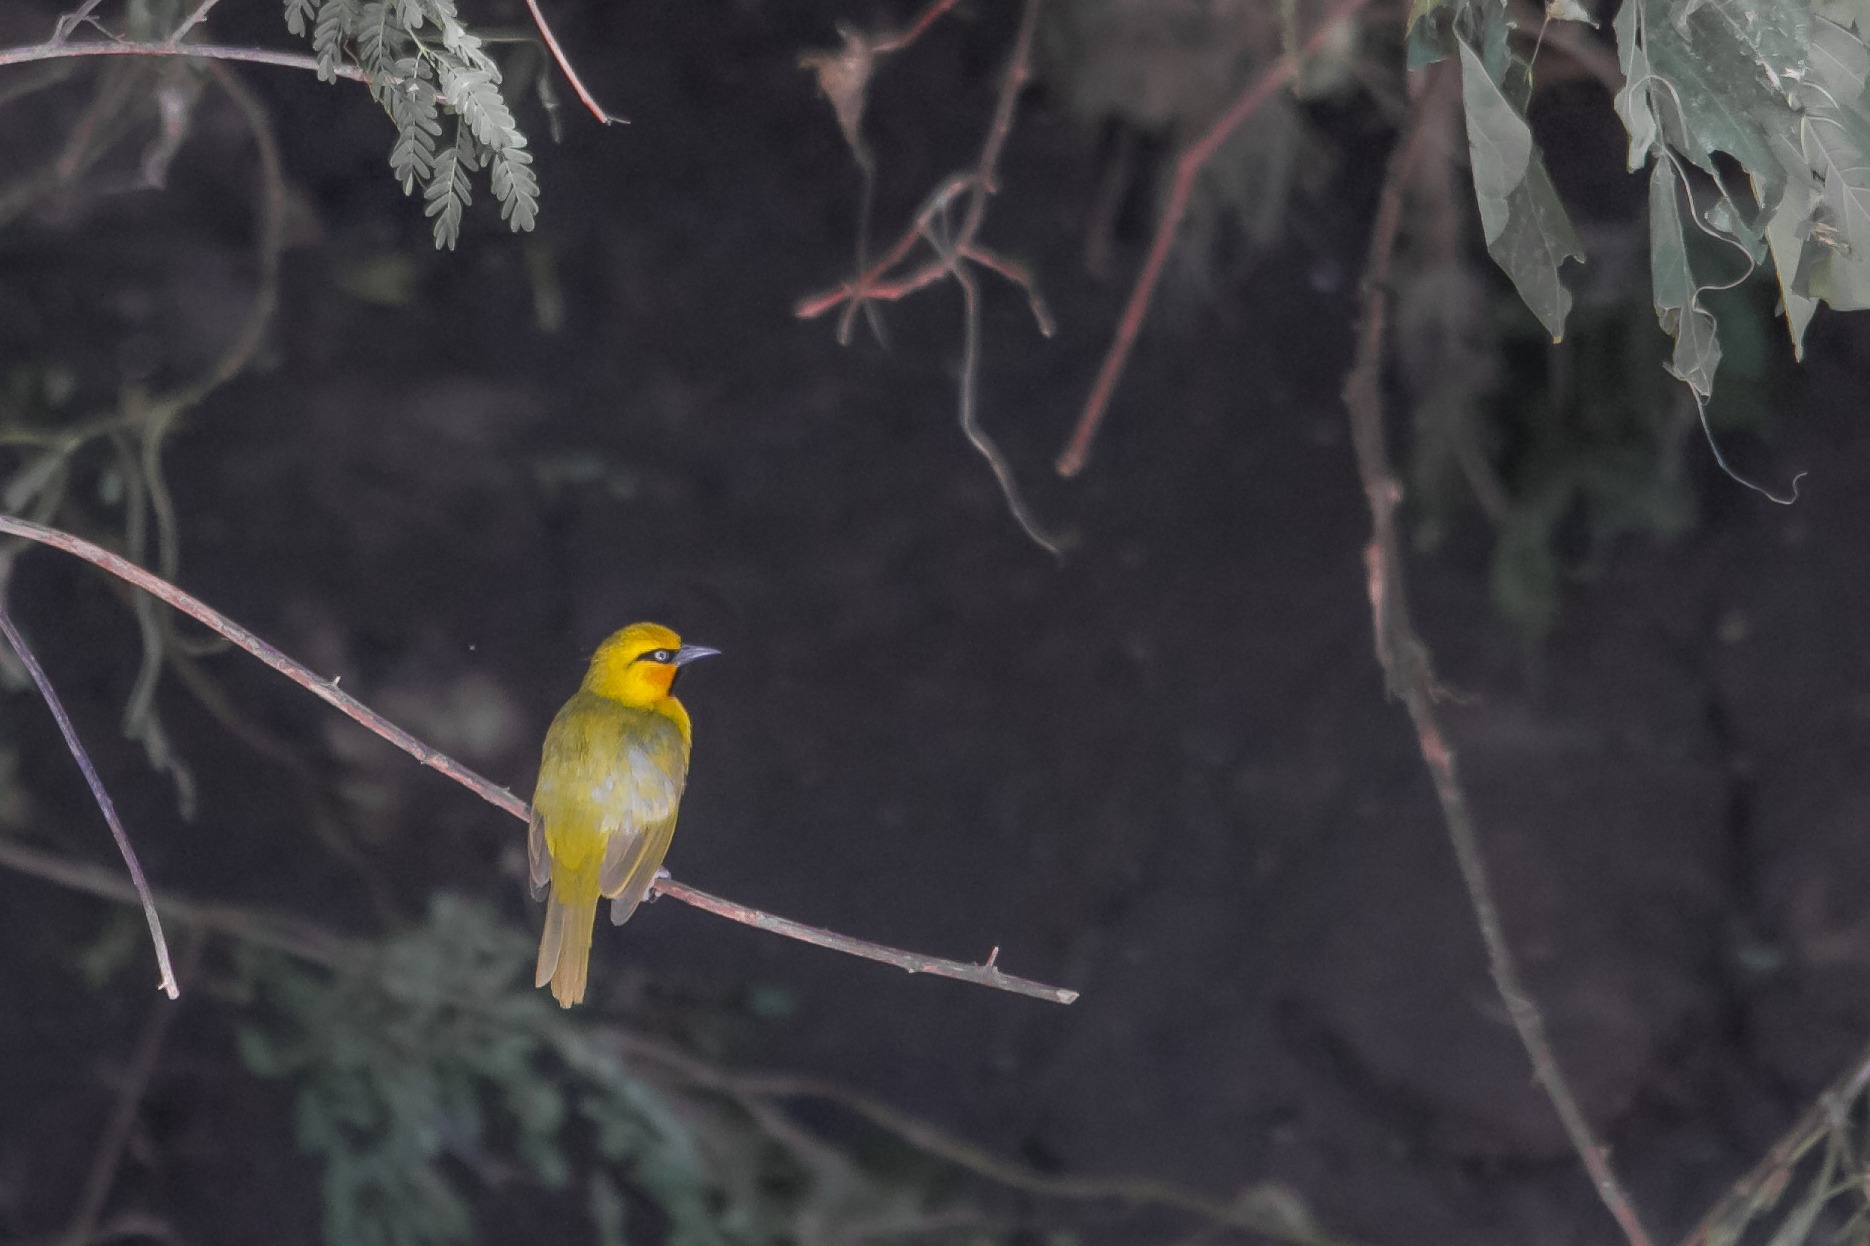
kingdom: Animalia
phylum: Chordata
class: Aves
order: Passeriformes
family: Ploceidae
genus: Ploceus
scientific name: Ploceus ocularis
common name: Spectacled weaver
